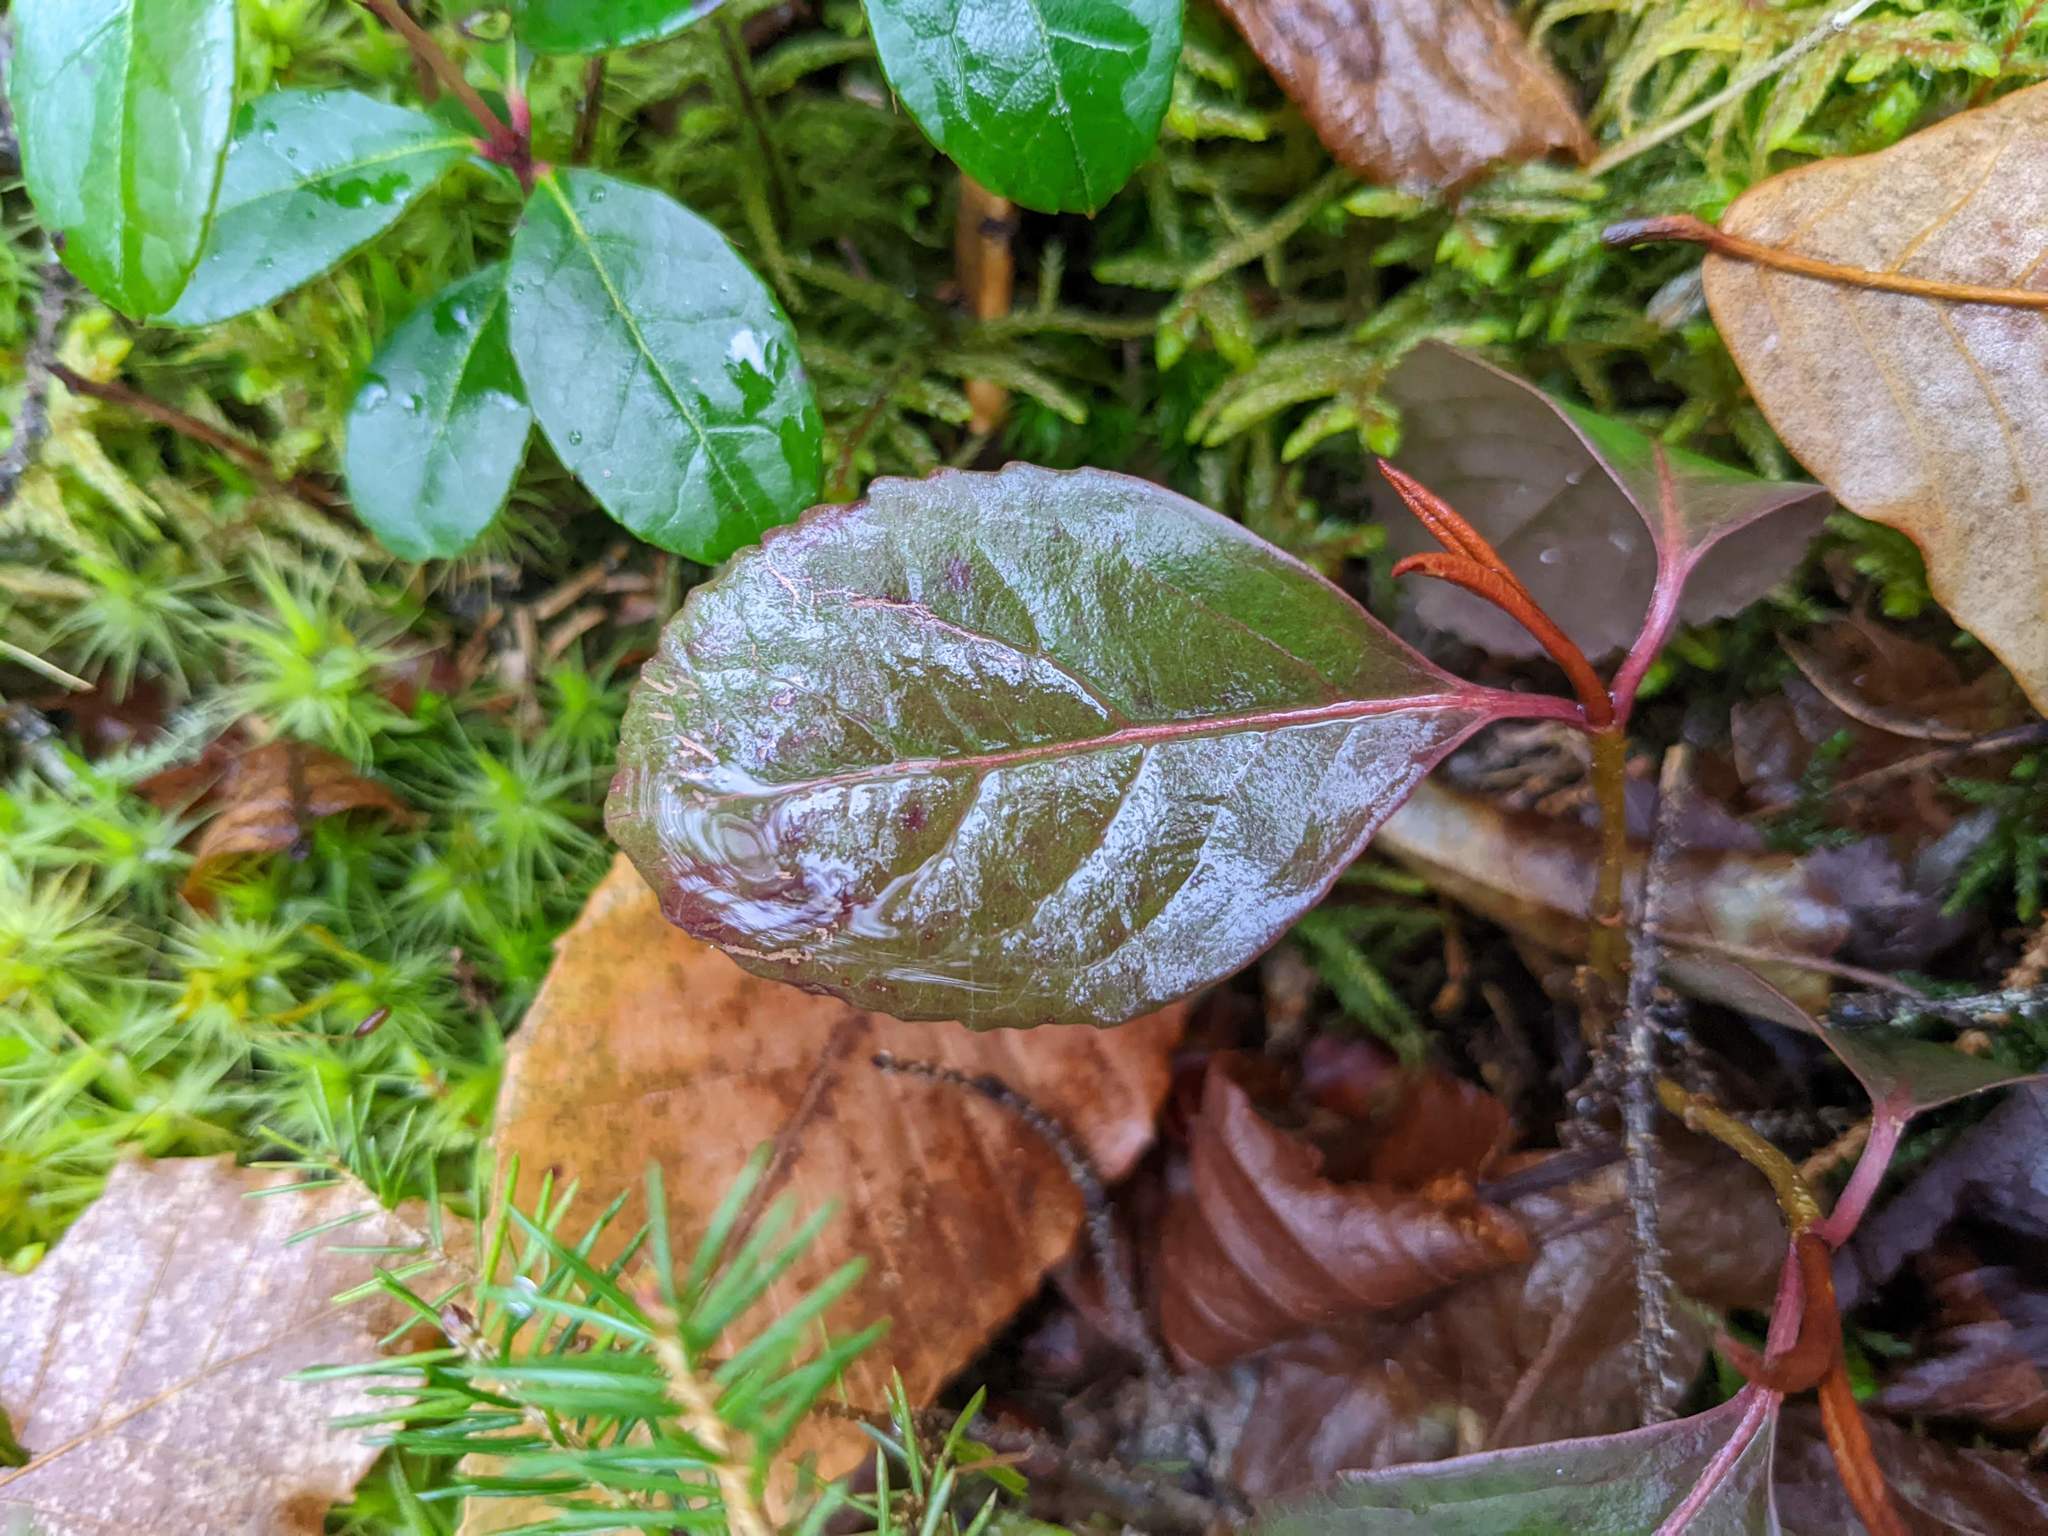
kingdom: Plantae
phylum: Tracheophyta
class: Magnoliopsida
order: Dipsacales
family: Viburnaceae
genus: Viburnum
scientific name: Viburnum cassinoides
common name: Swamp haw
